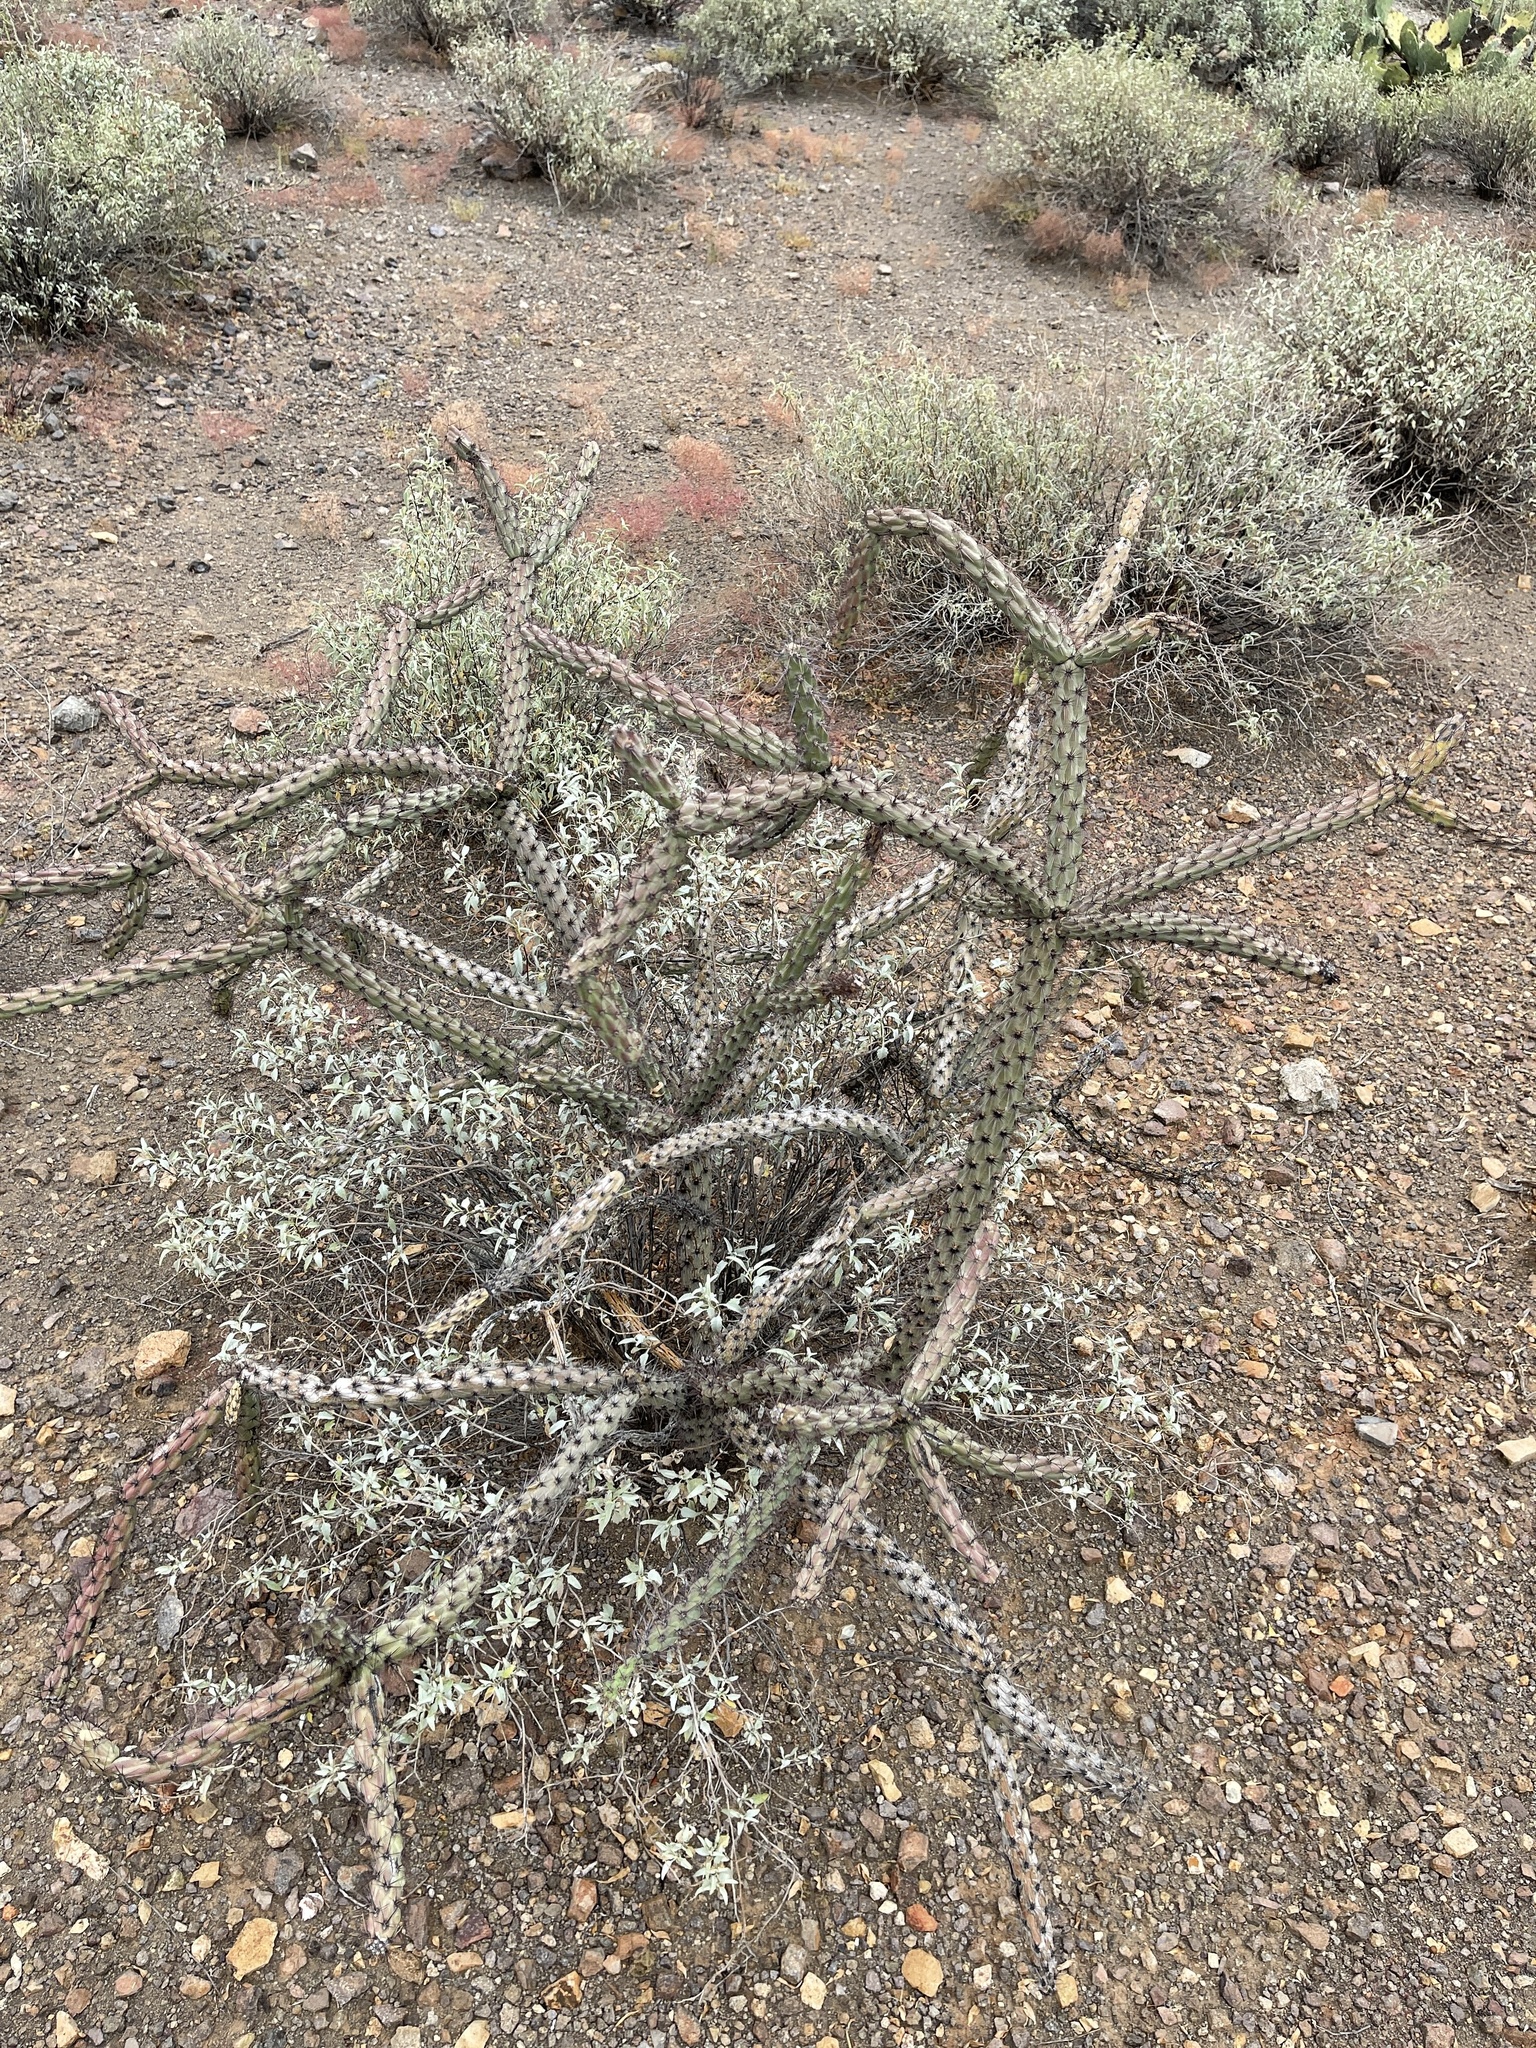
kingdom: Plantae
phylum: Tracheophyta
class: Magnoliopsida
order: Caryophyllales
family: Cactaceae
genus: Cylindropuntia
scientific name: Cylindropuntia thurberi
